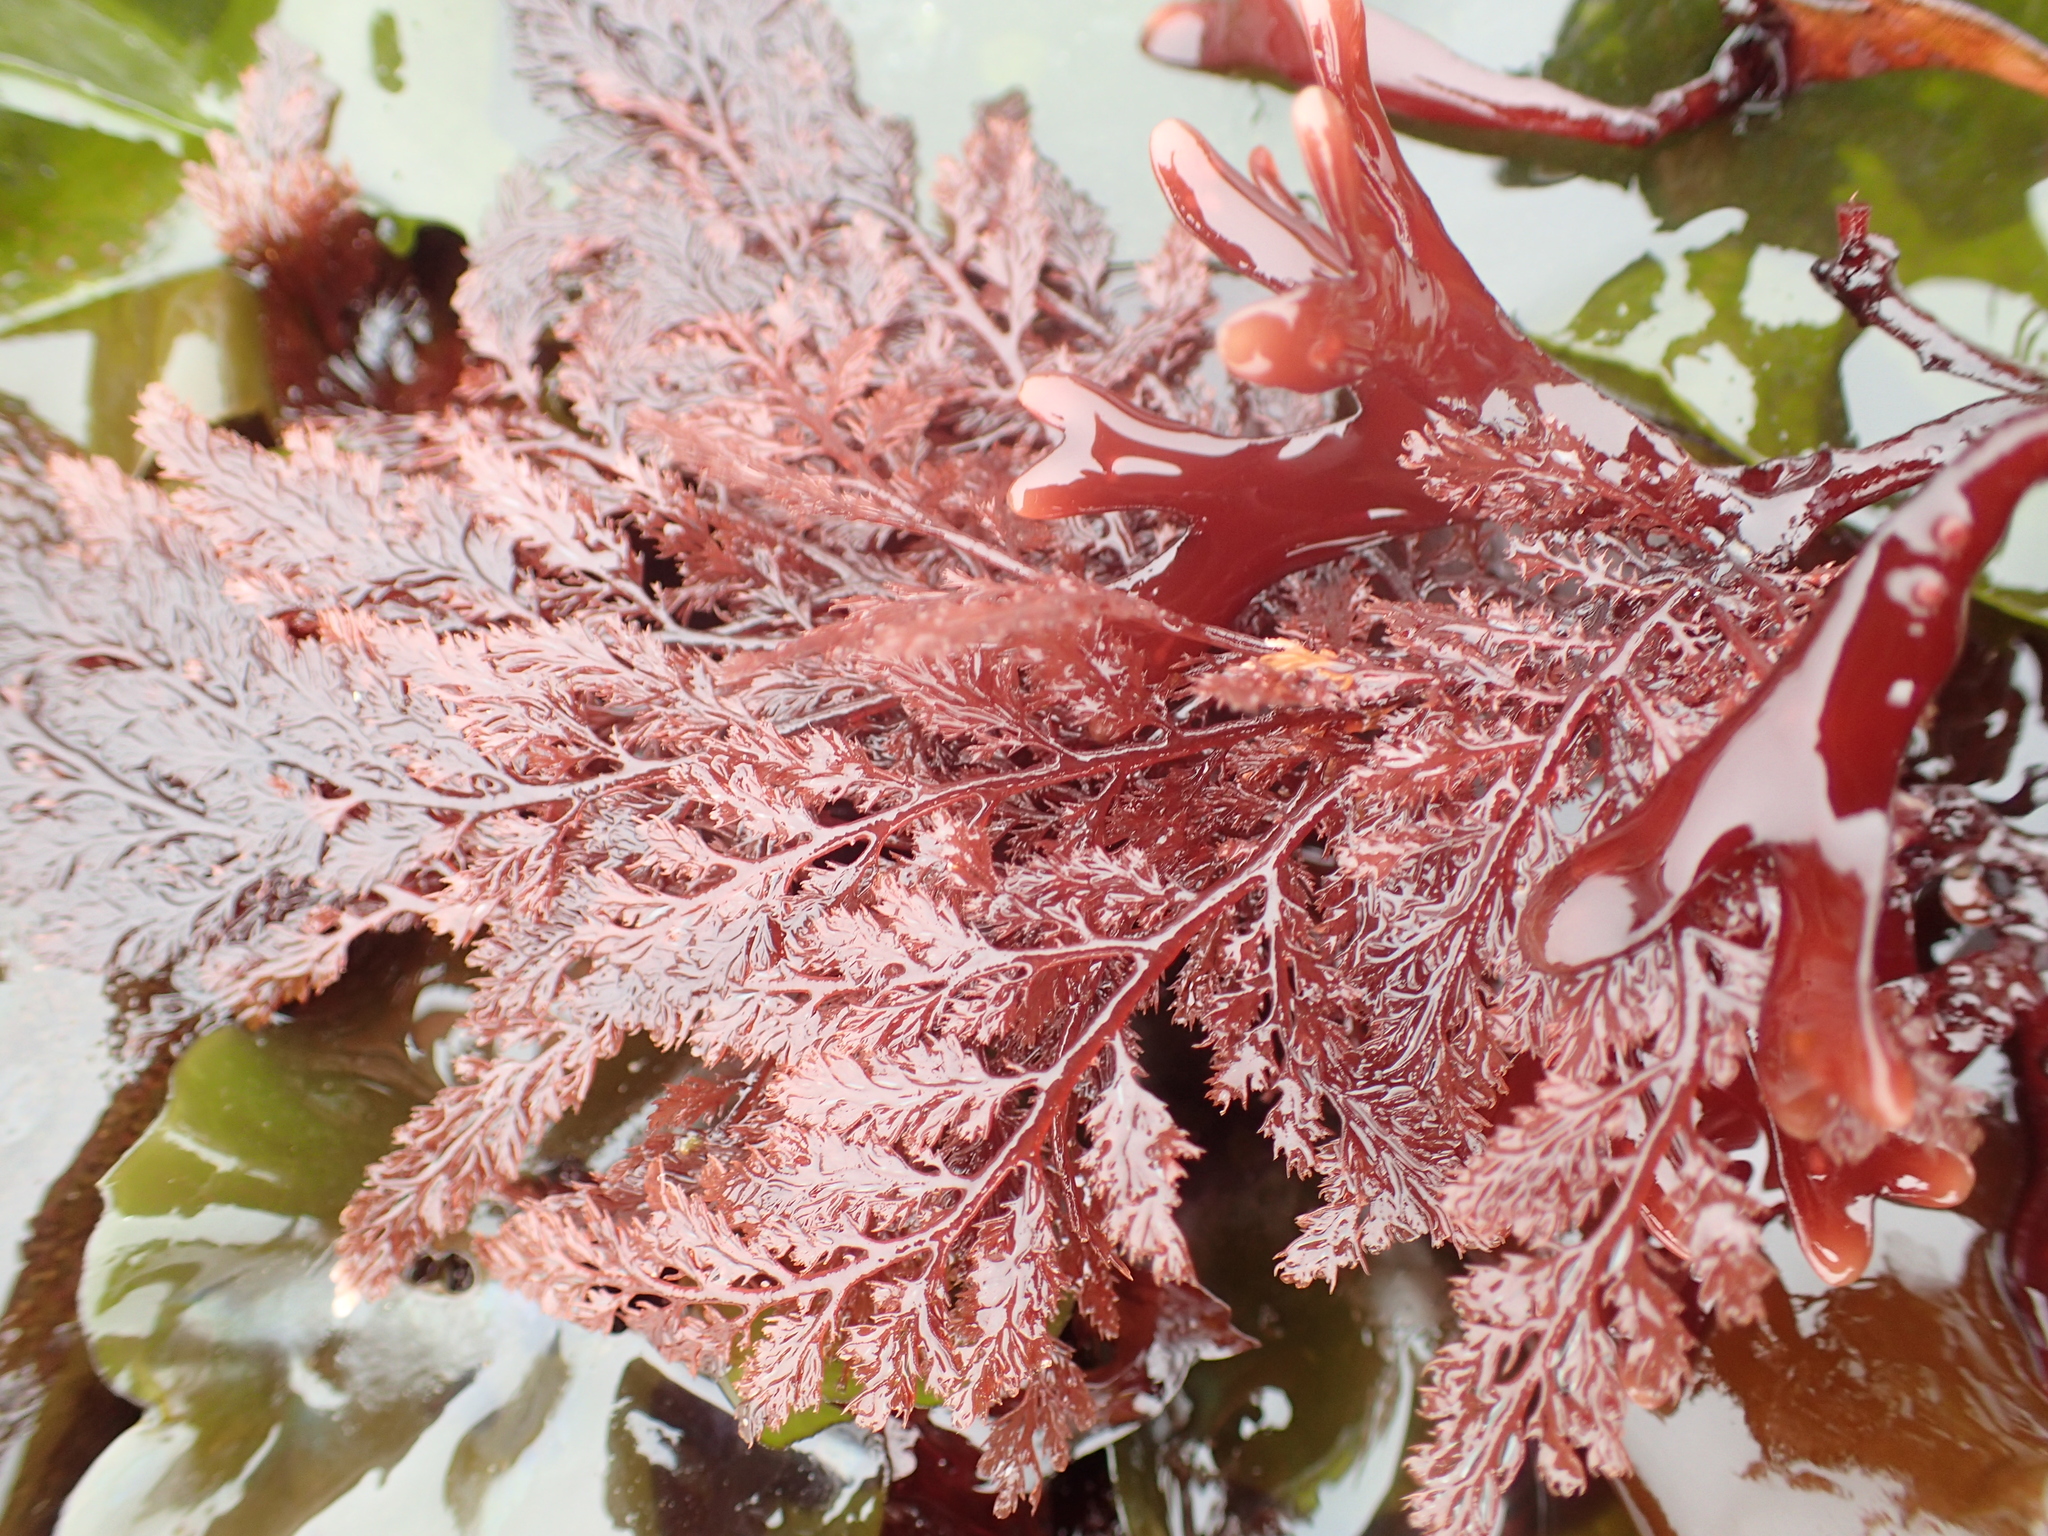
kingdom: Plantae
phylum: Rhodophyta
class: Florideophyceae
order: Ceramiales
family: Ceramiaceae
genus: Microcladia
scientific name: Microcladia coulteri
